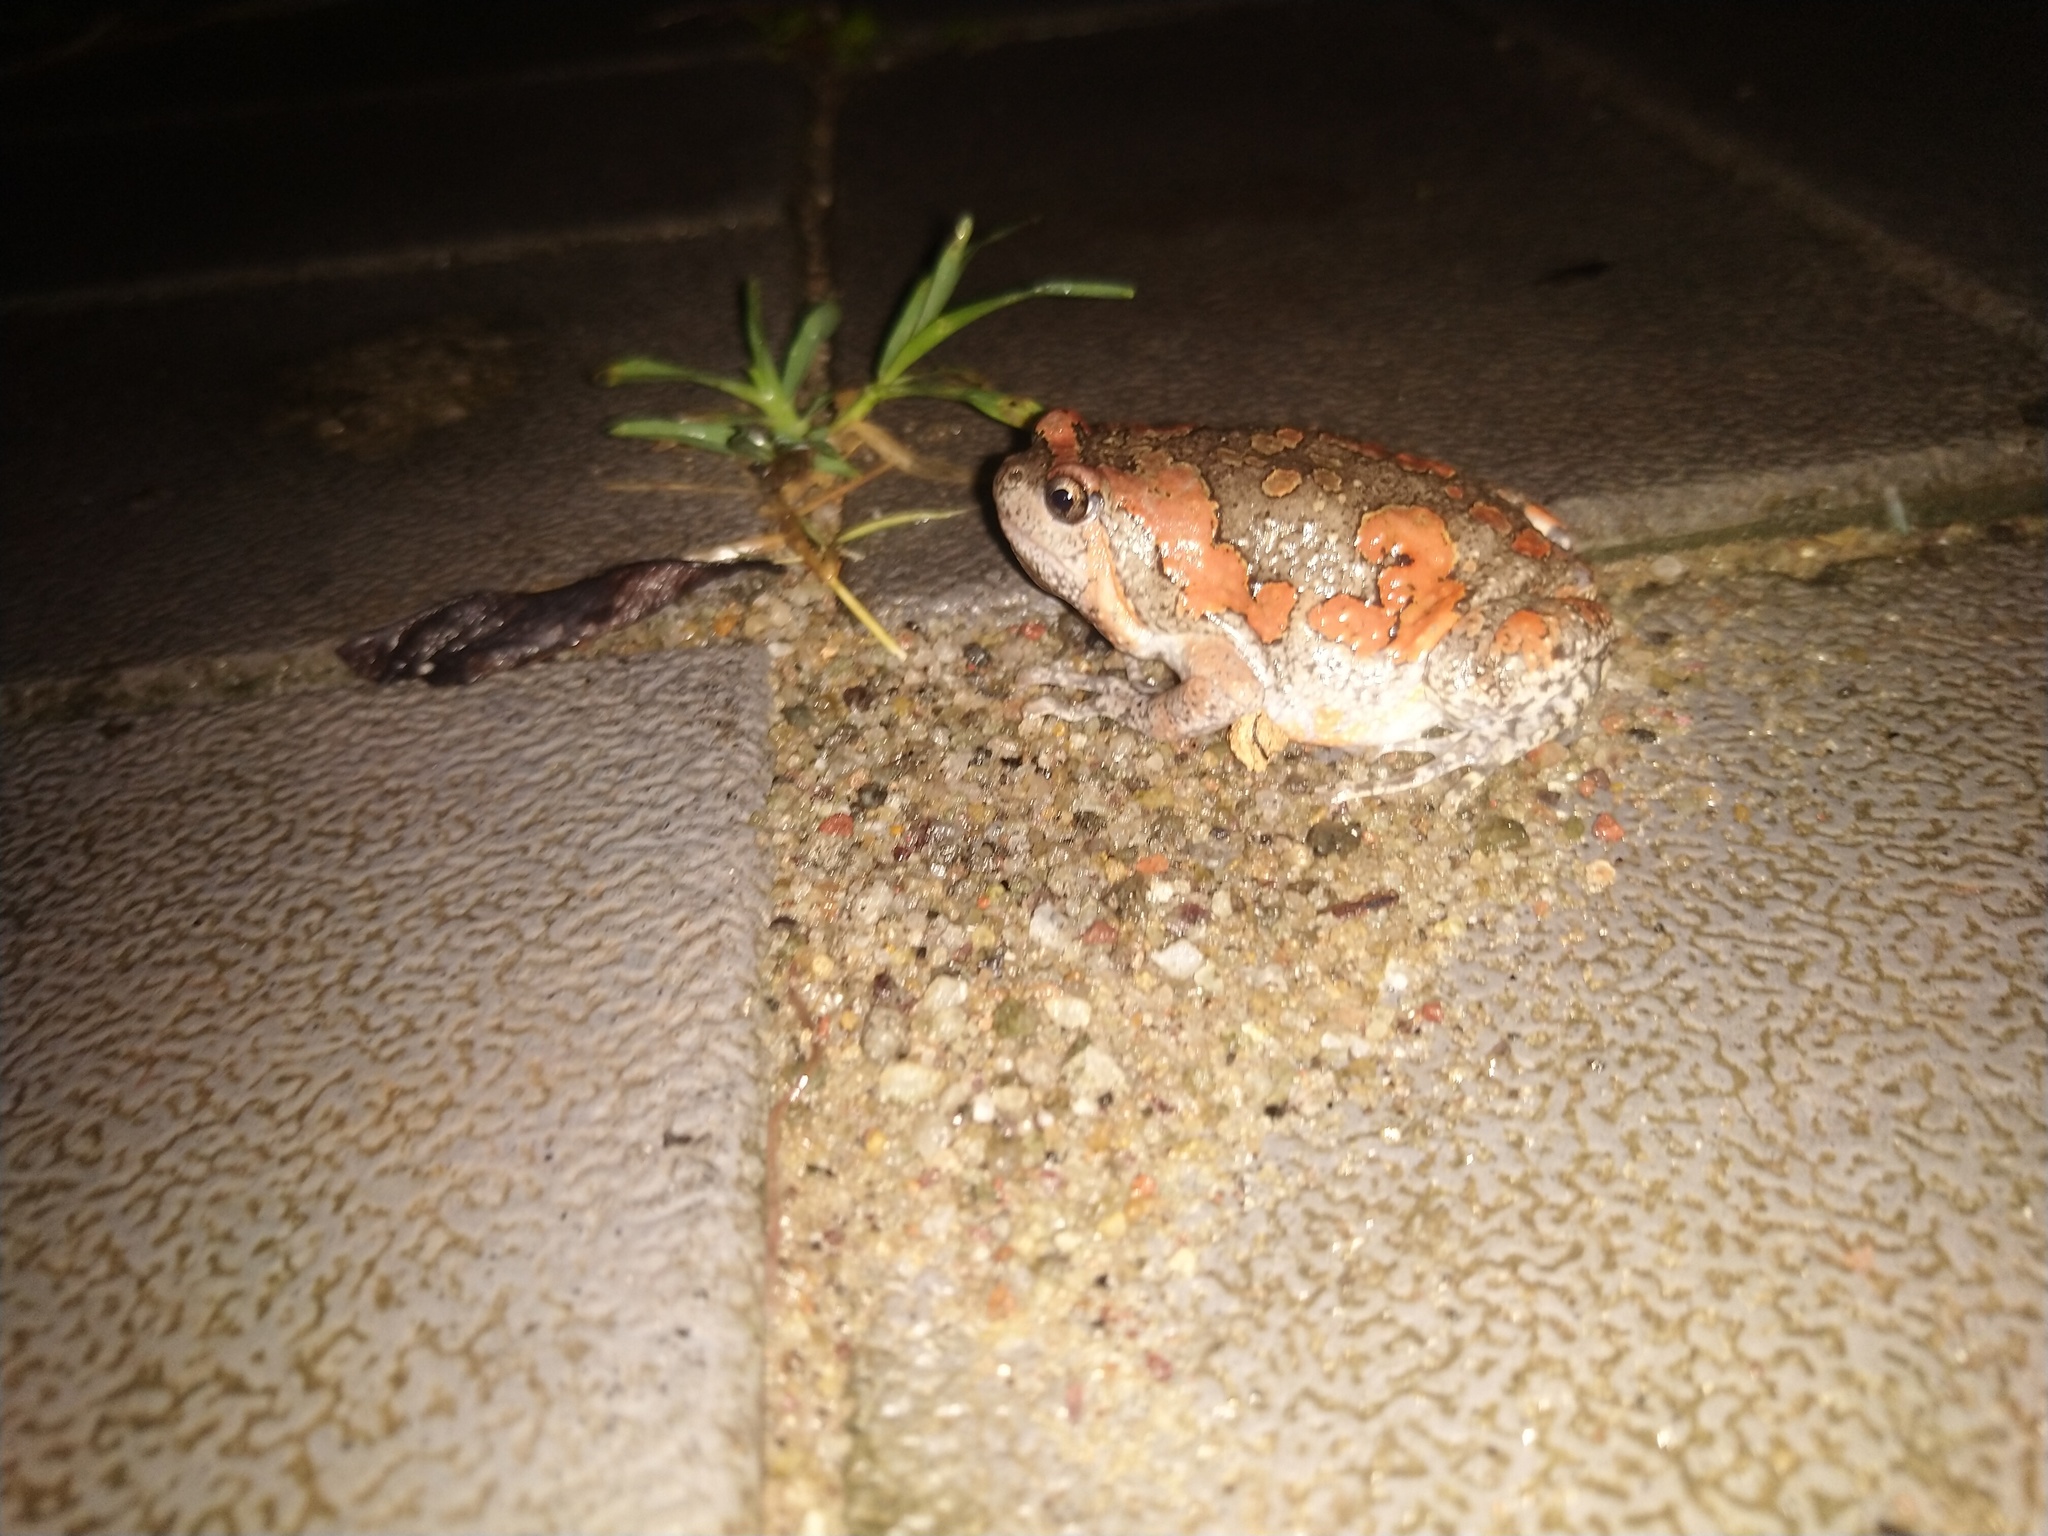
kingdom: Animalia
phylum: Chordata
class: Amphibia
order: Anura
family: Microhylidae
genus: Uperodon
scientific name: Uperodon taprobanicus
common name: Ceylon kaloula
